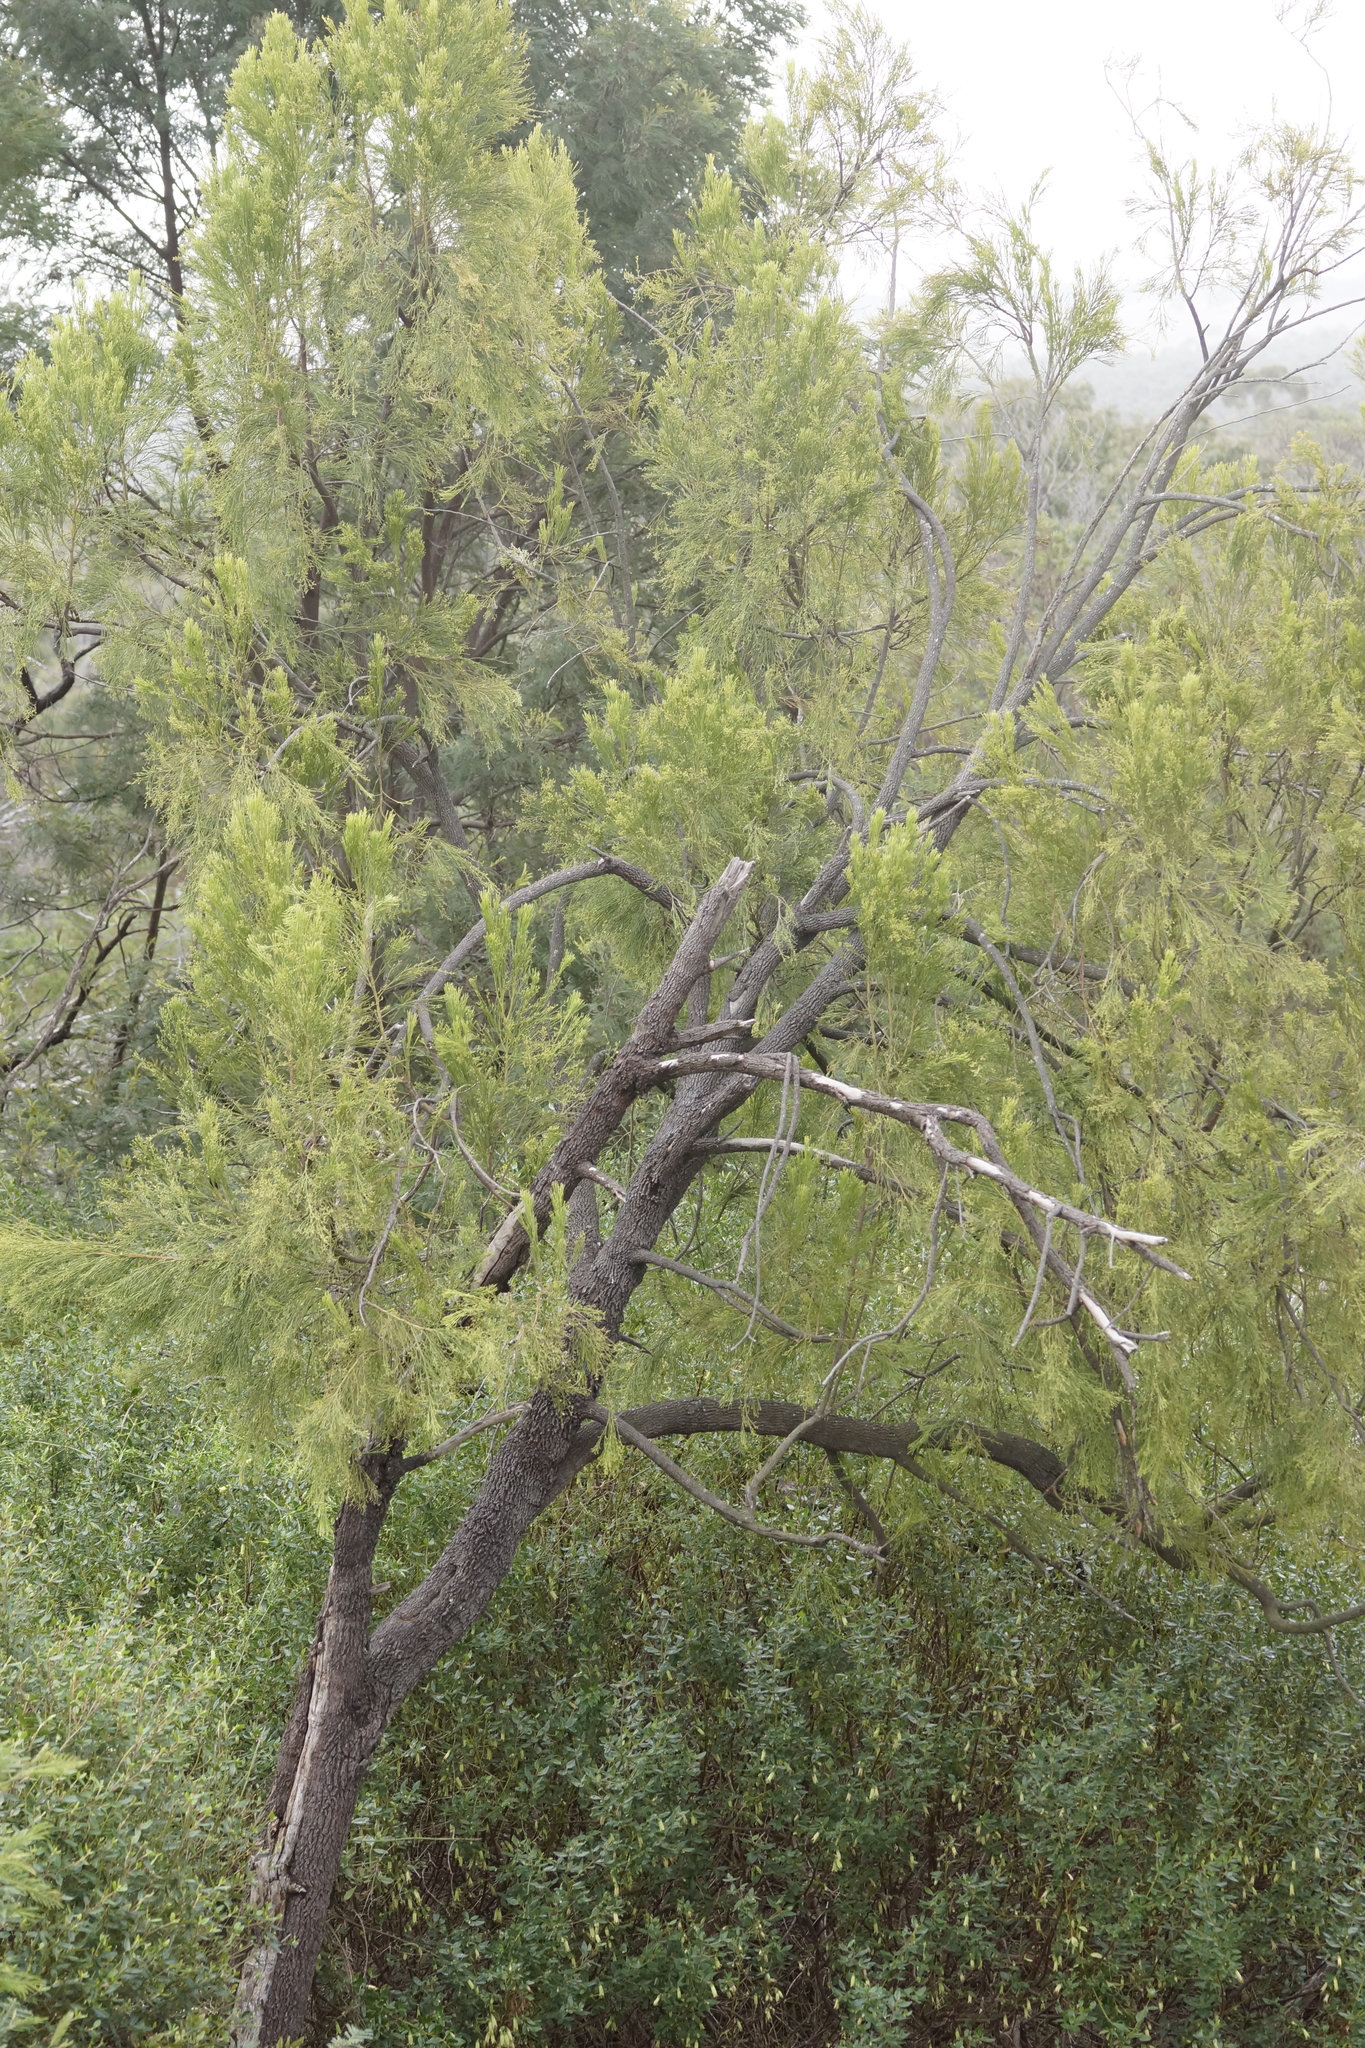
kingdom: Plantae
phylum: Tracheophyta
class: Magnoliopsida
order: Santalales
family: Santalaceae
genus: Exocarpos
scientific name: Exocarpos cupressiformis
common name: Cherry ballart
